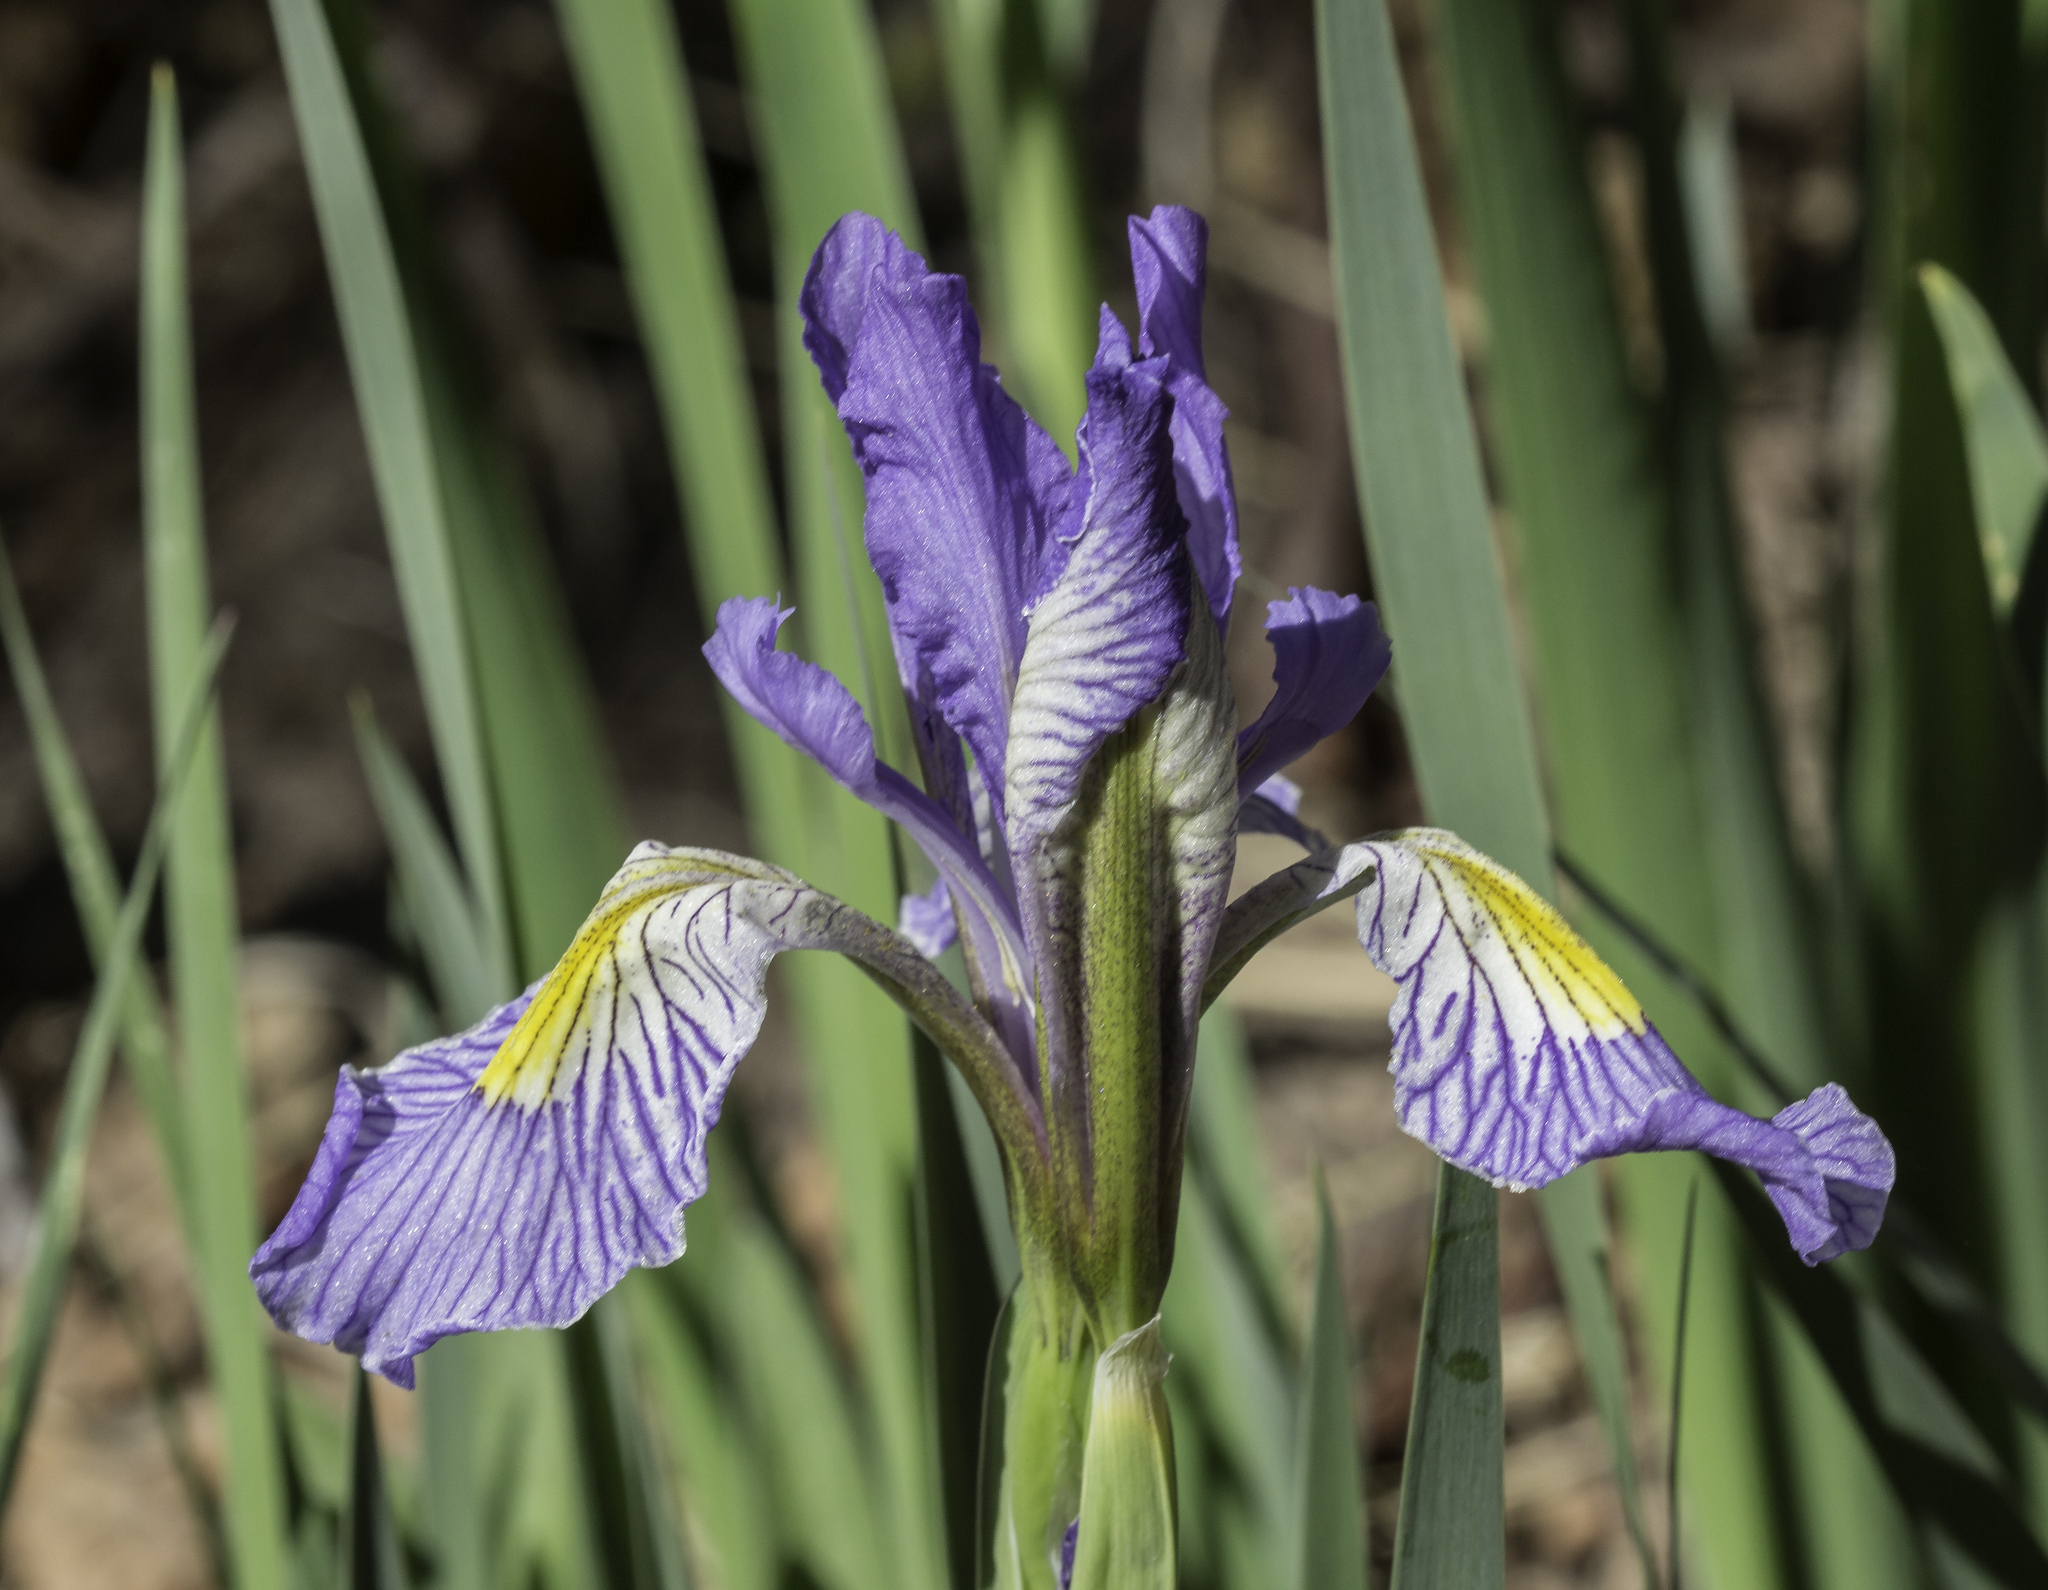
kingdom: Plantae
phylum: Tracheophyta
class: Liliopsida
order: Asparagales
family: Iridaceae
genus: Iris
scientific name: Iris missouriensis
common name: Rocky mountain iris
